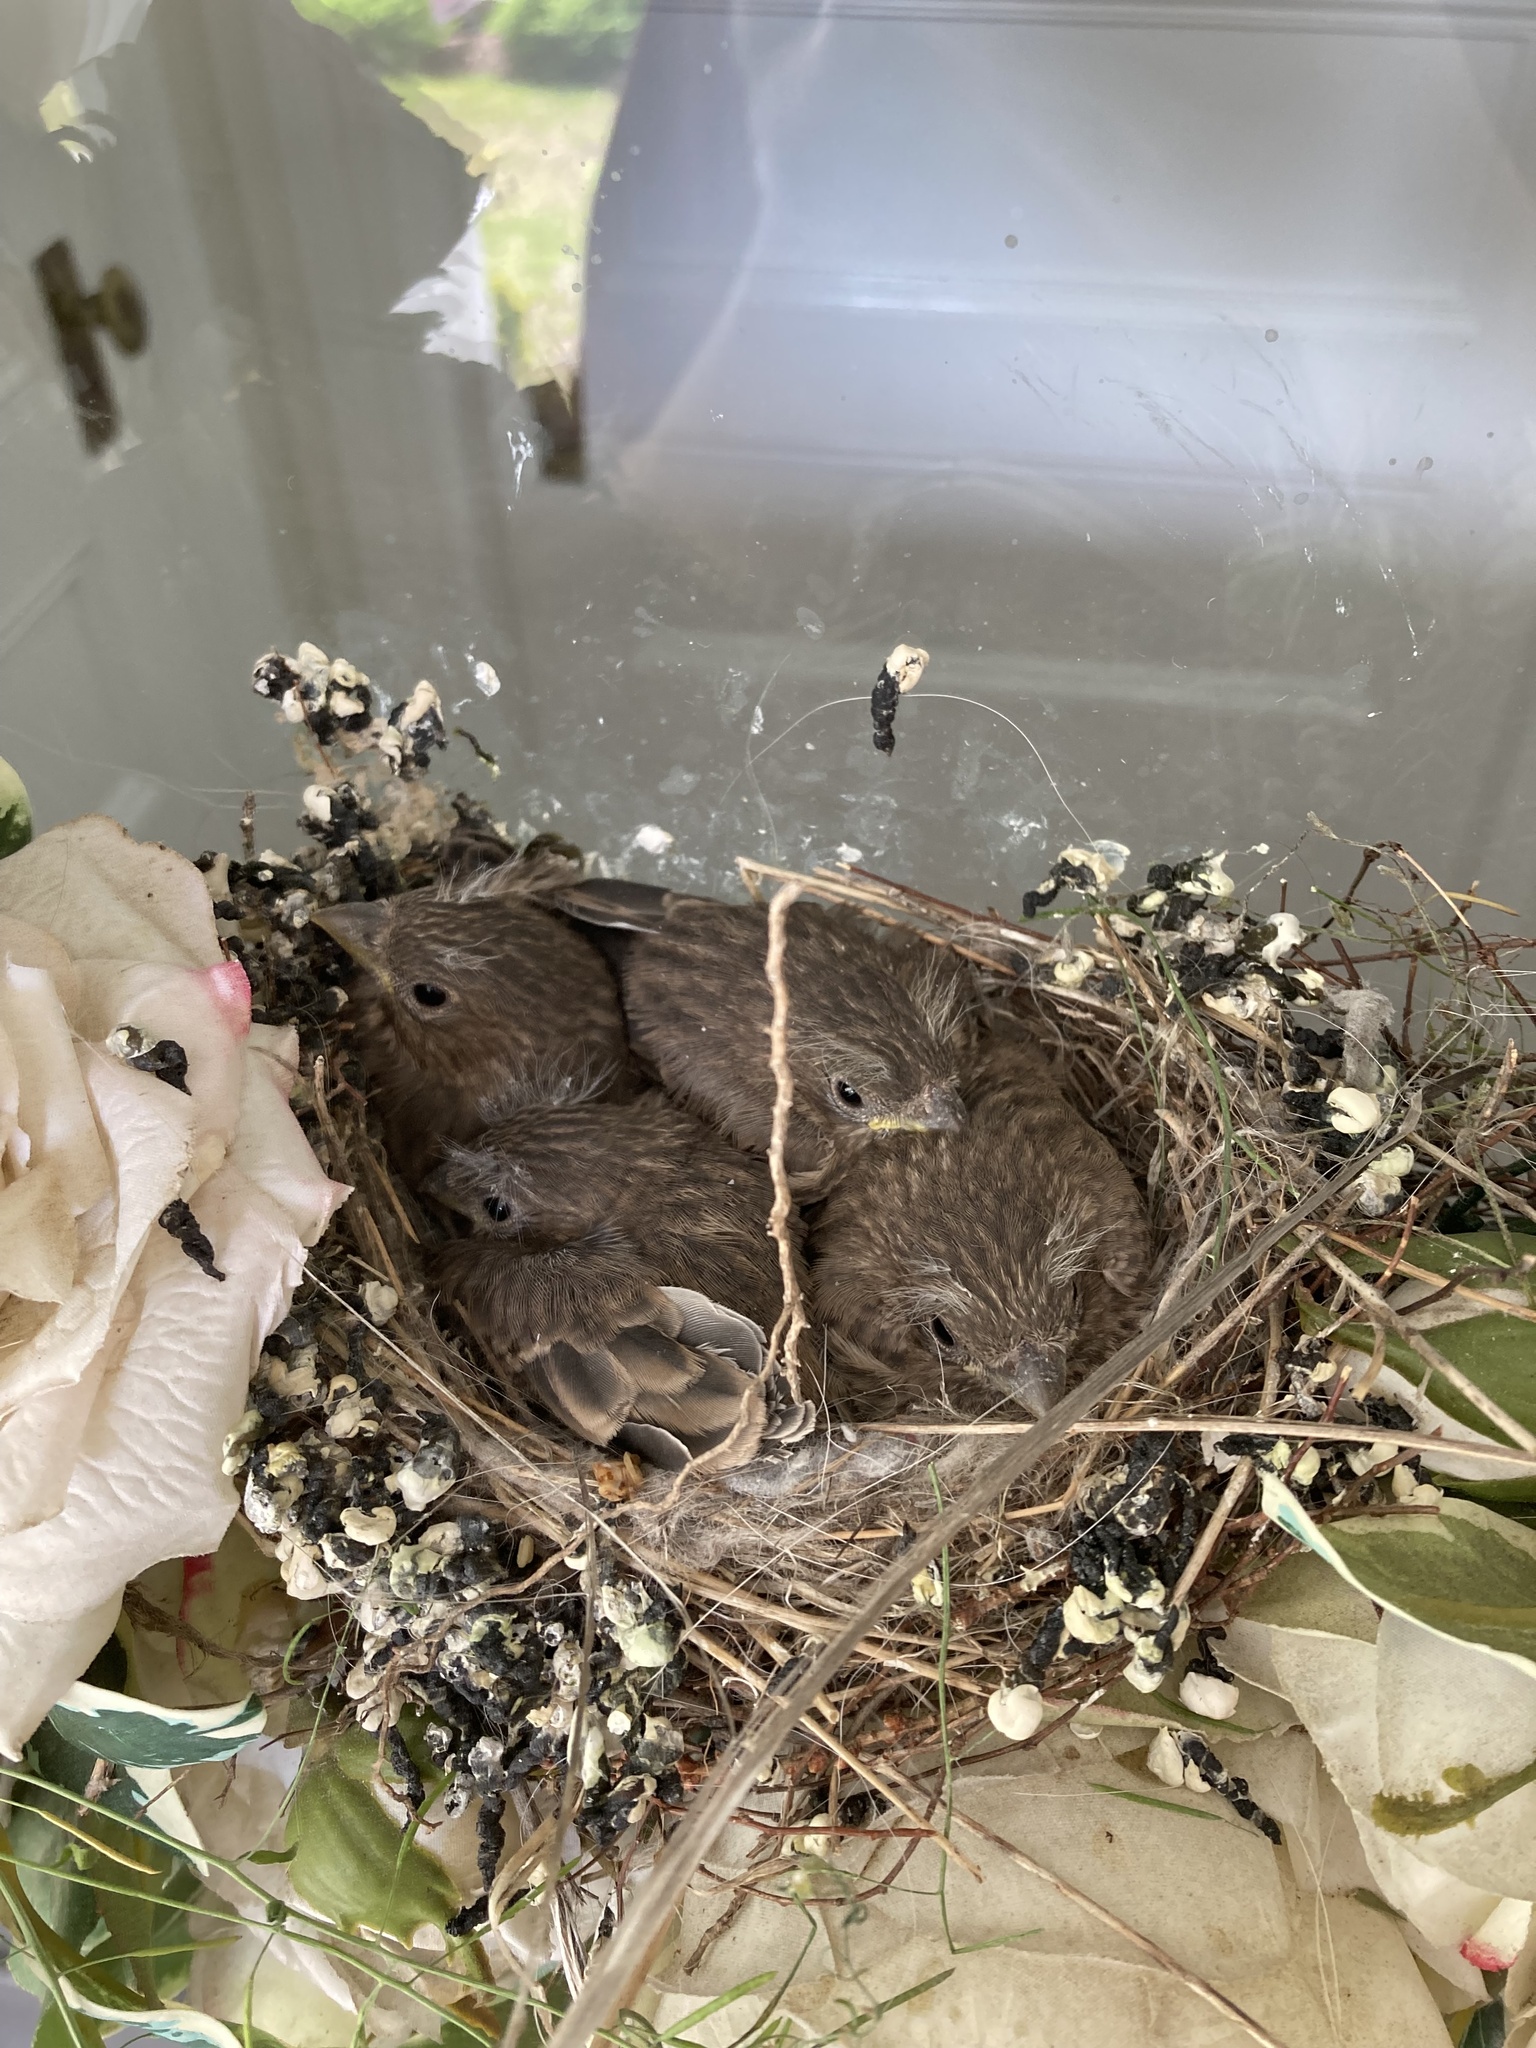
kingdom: Animalia
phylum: Chordata
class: Aves
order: Passeriformes
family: Fringillidae
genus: Haemorhous
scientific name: Haemorhous mexicanus
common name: House finch
